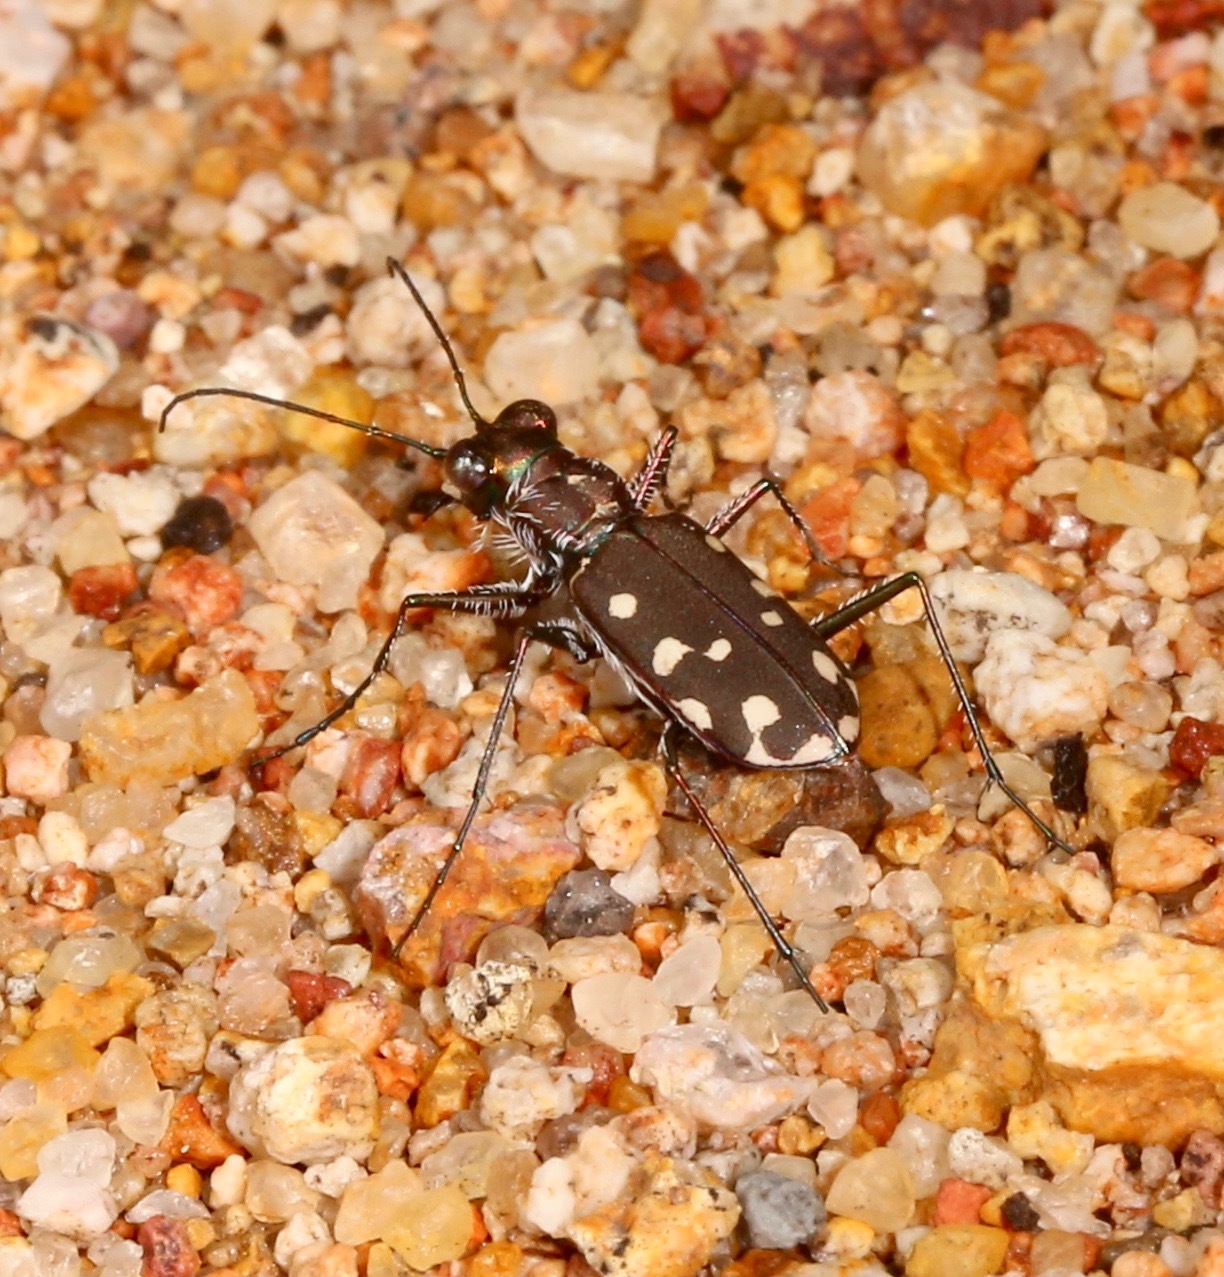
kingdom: Animalia
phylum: Arthropoda
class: Insecta
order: Coleoptera
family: Carabidae
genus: Cicindela
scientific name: Cicindela sedecimpunctata
